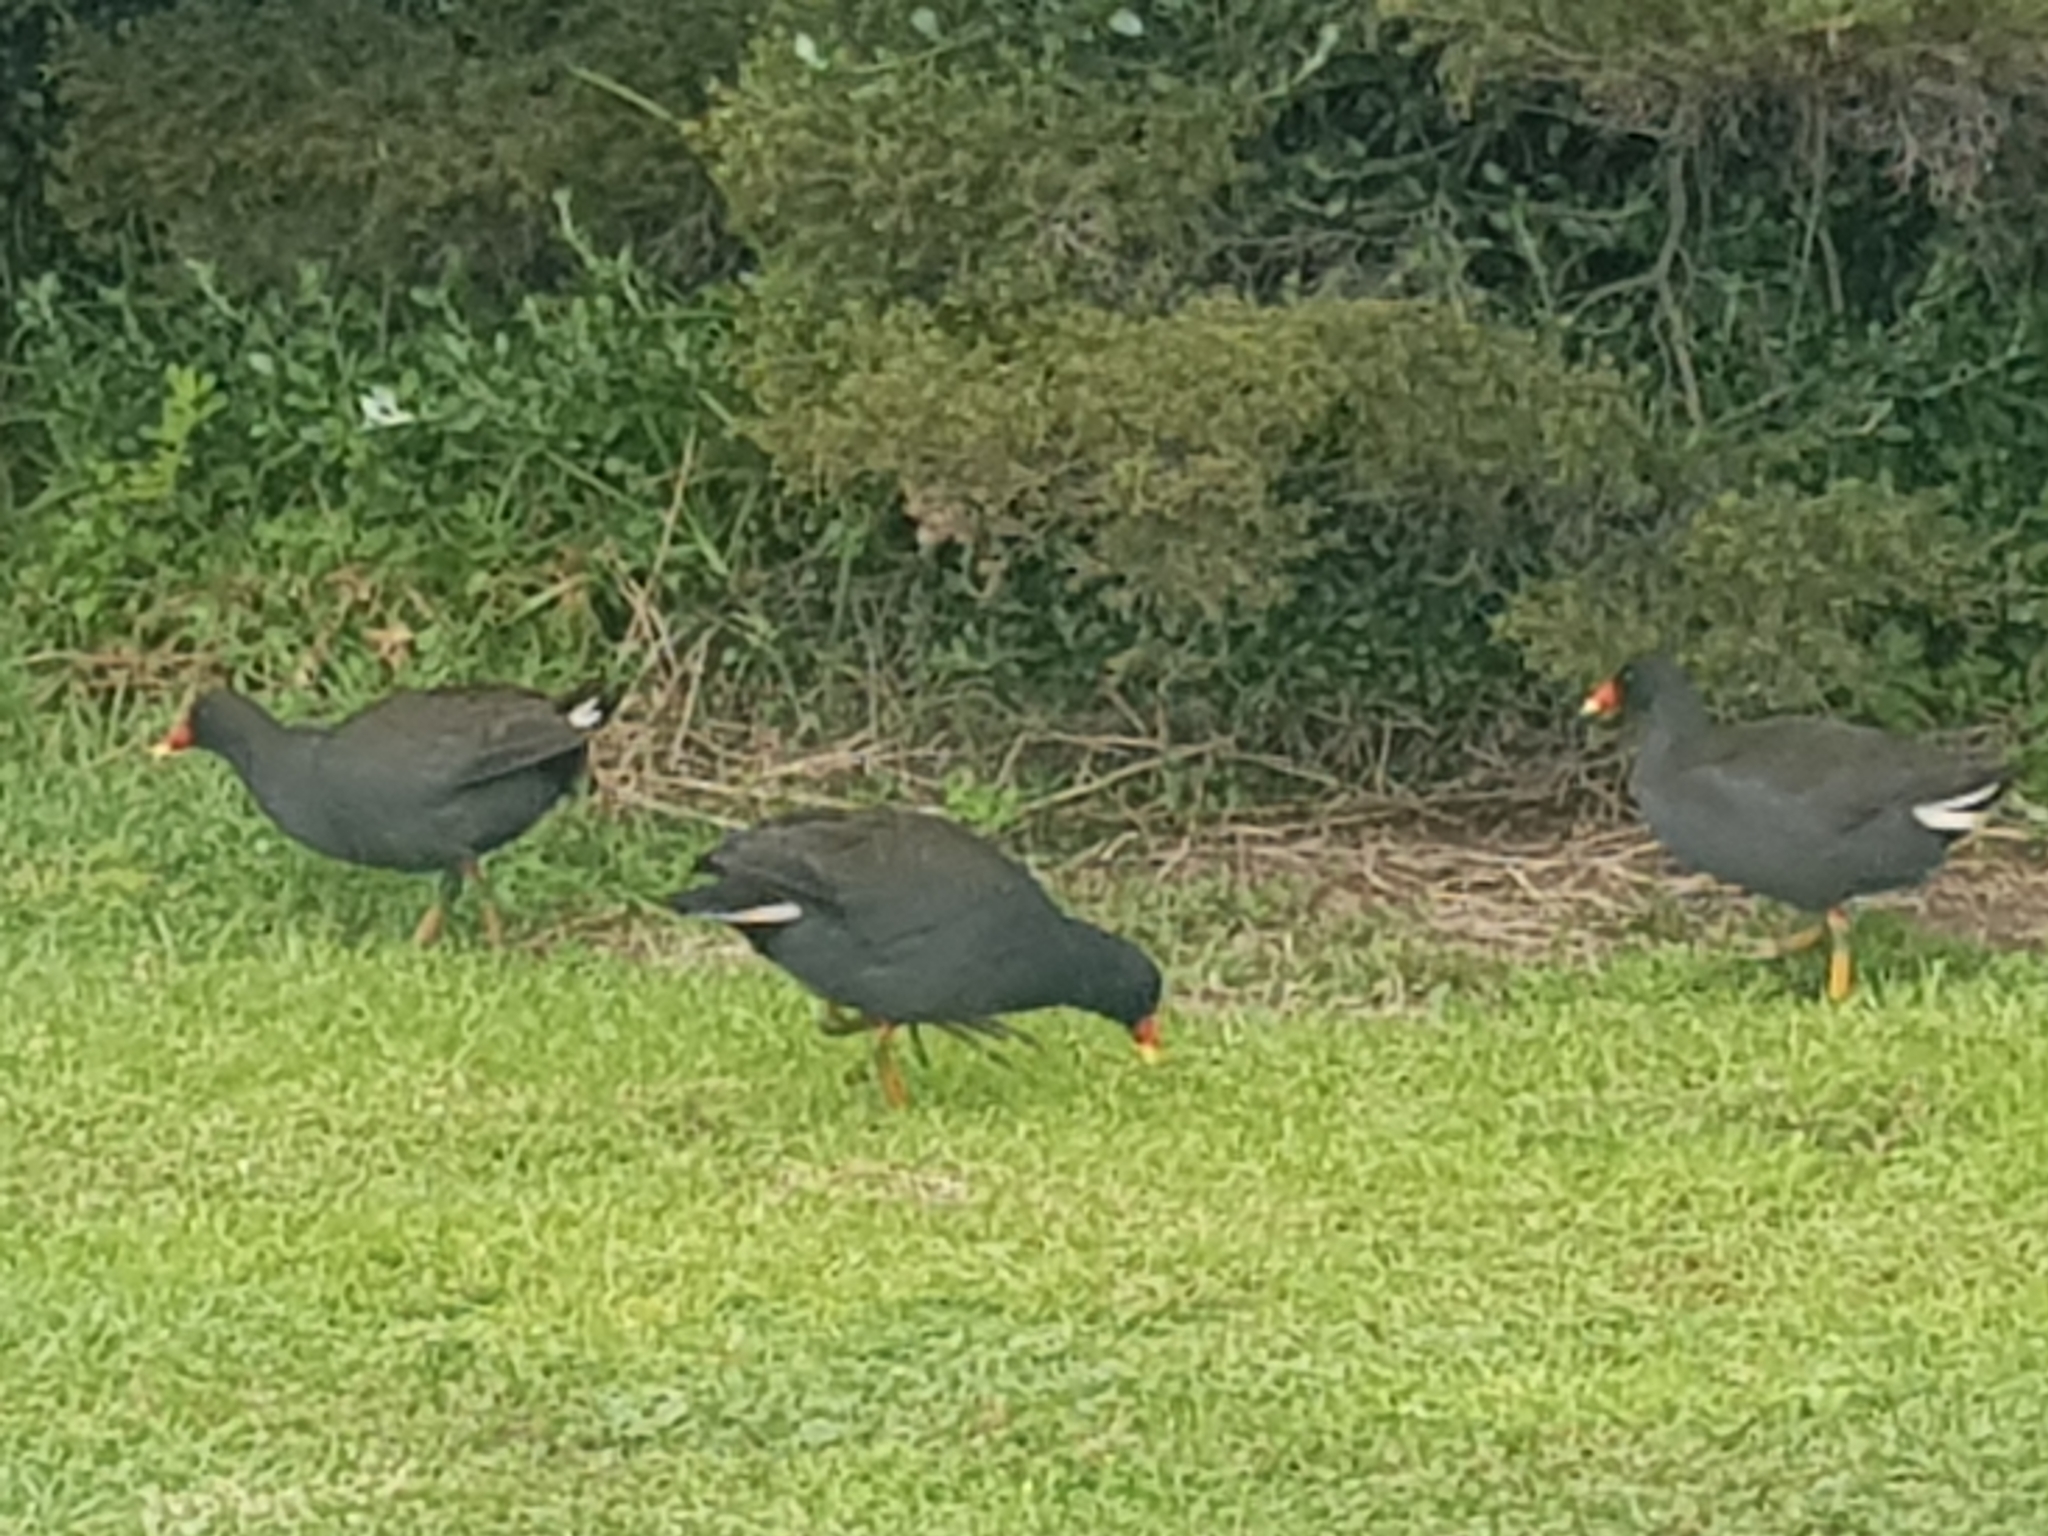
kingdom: Animalia
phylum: Chordata
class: Aves
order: Gruiformes
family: Rallidae
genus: Gallinula
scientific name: Gallinula tenebrosa
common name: Dusky moorhen
